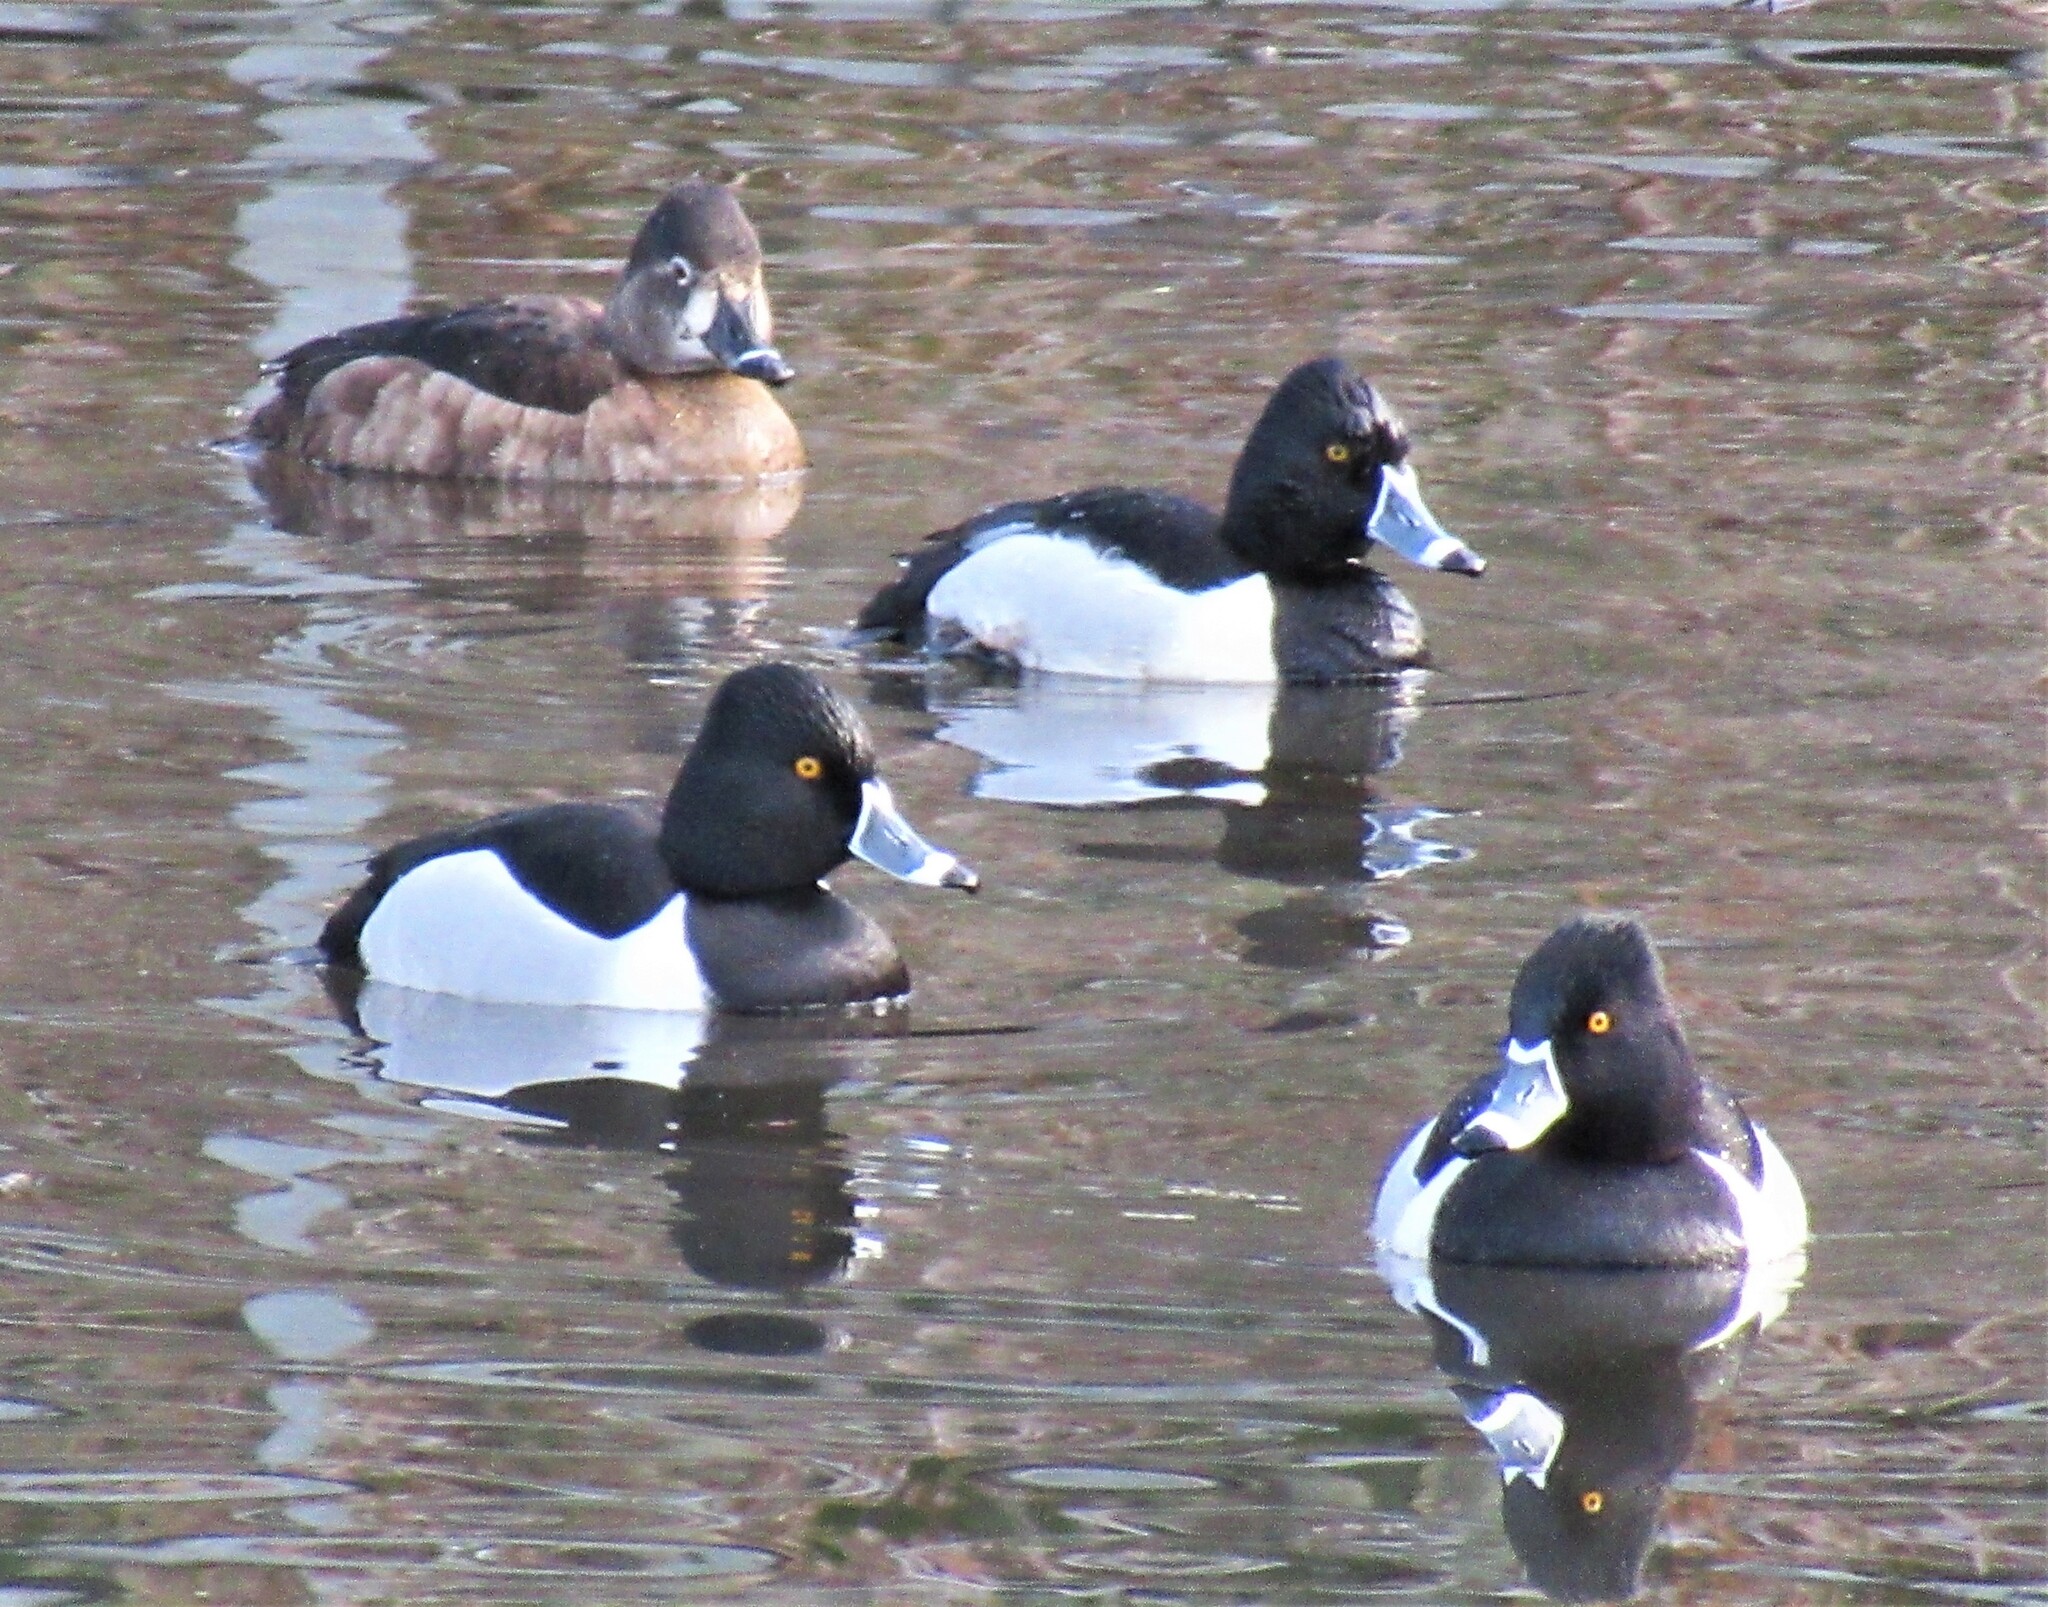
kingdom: Animalia
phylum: Chordata
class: Aves
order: Anseriformes
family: Anatidae
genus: Aythya
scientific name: Aythya collaris
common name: Ring-necked duck
